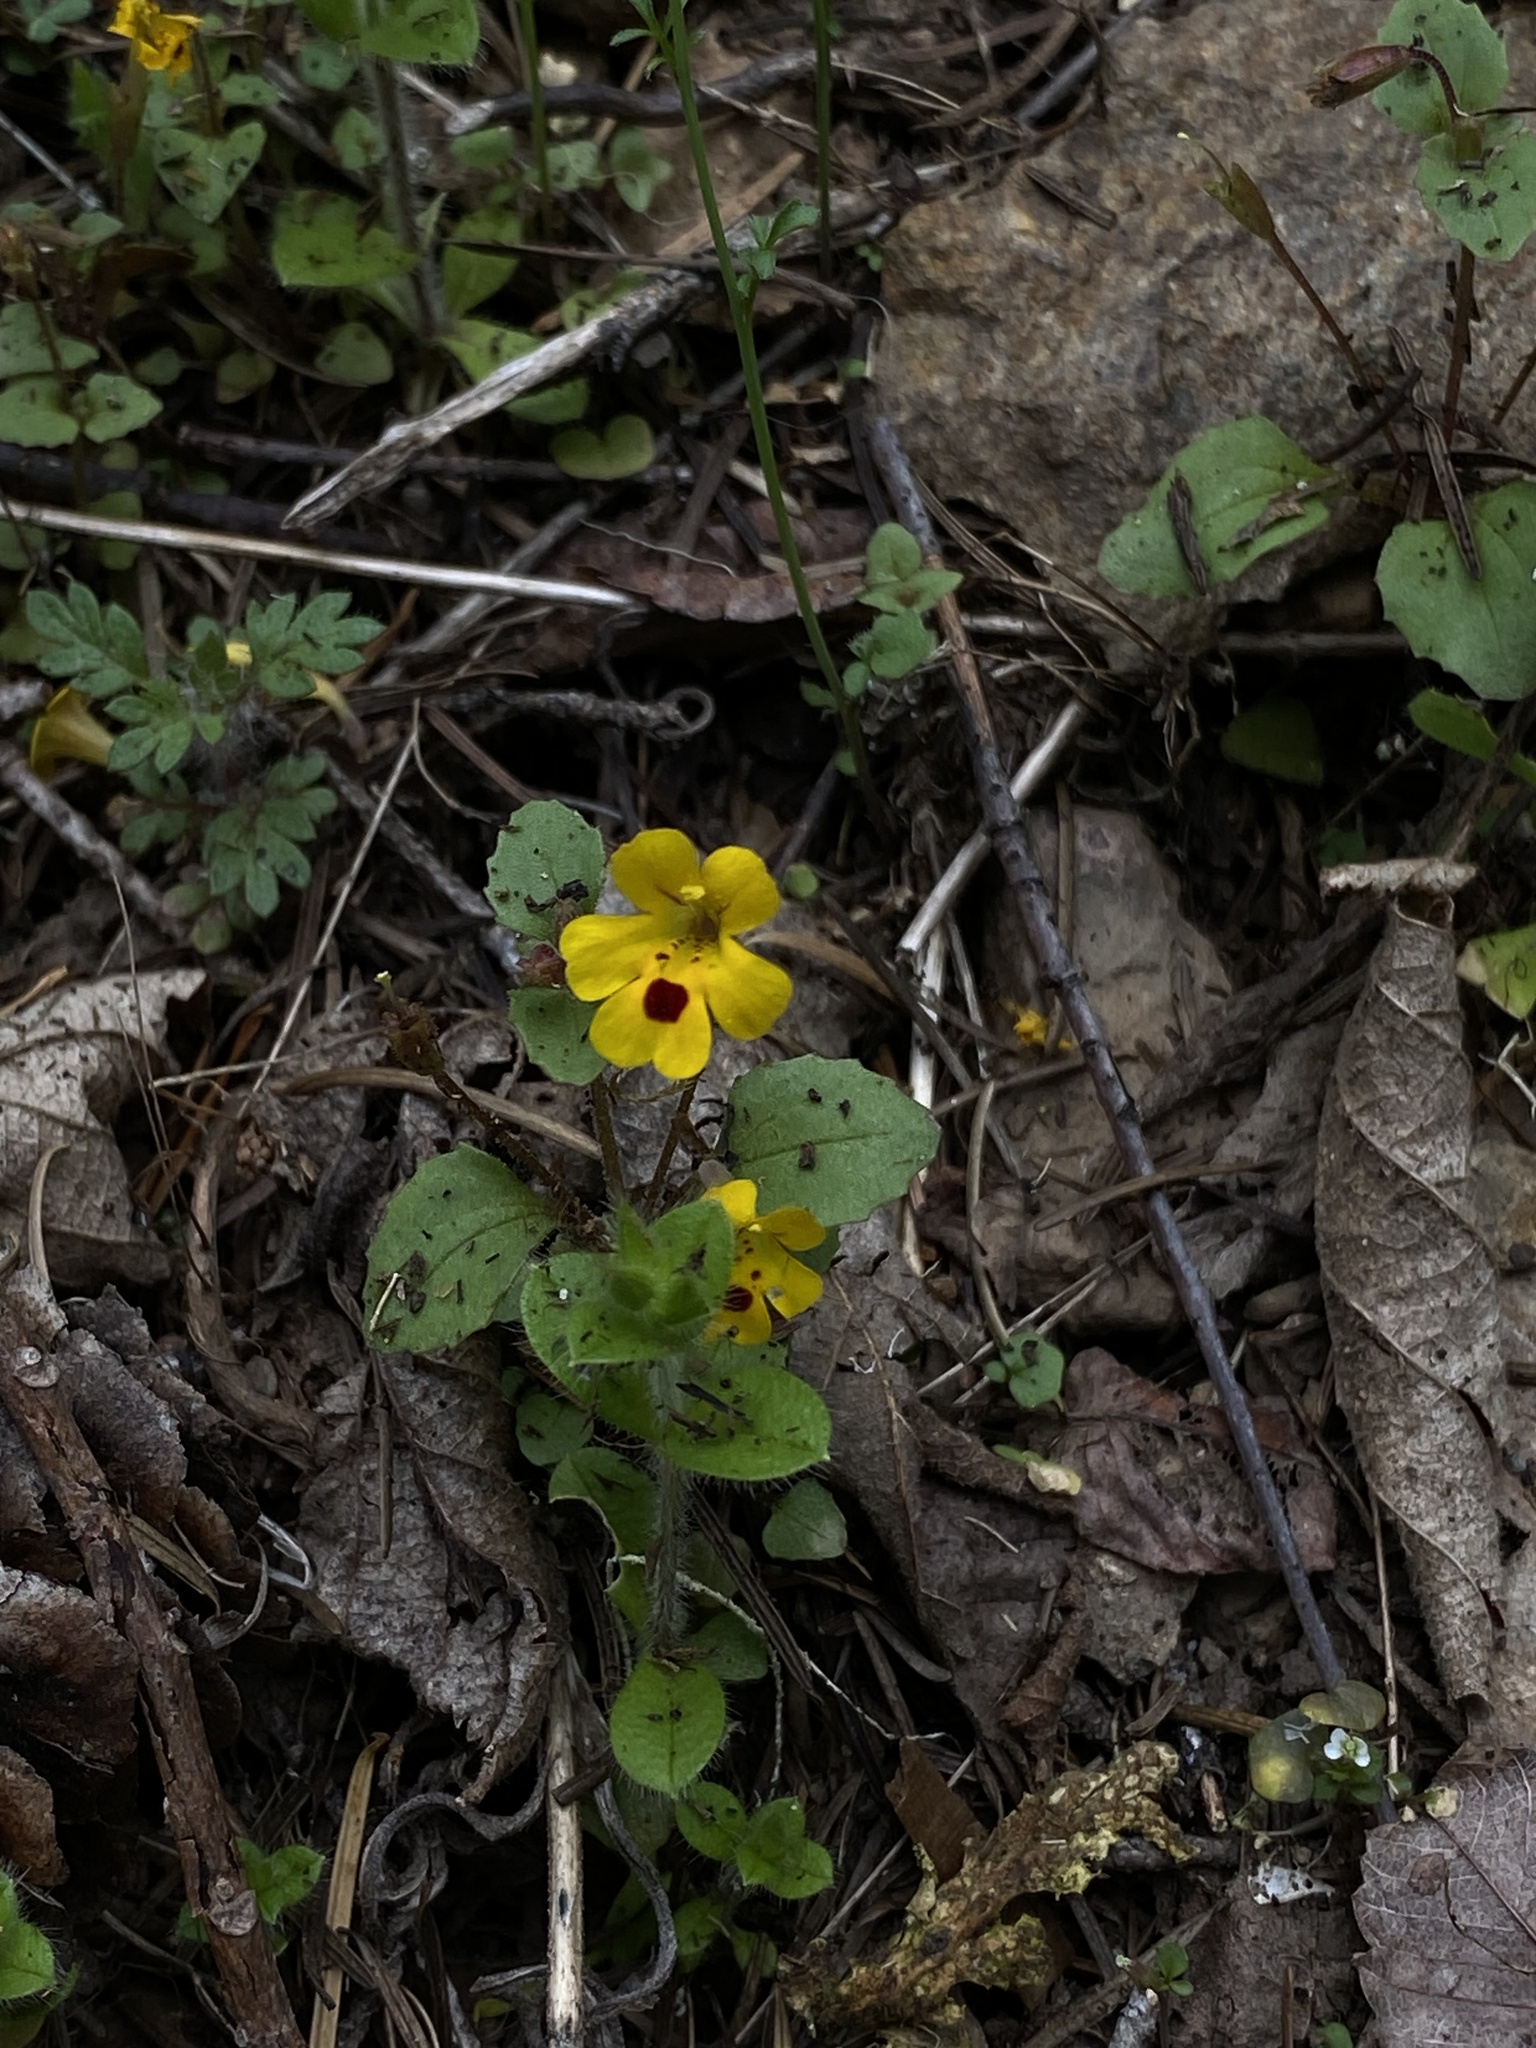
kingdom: Plantae
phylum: Tracheophyta
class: Magnoliopsida
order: Lamiales
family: Phrymaceae
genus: Erythranthe
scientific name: Erythranthe alsinoides
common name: Chickweed monkeyflower
